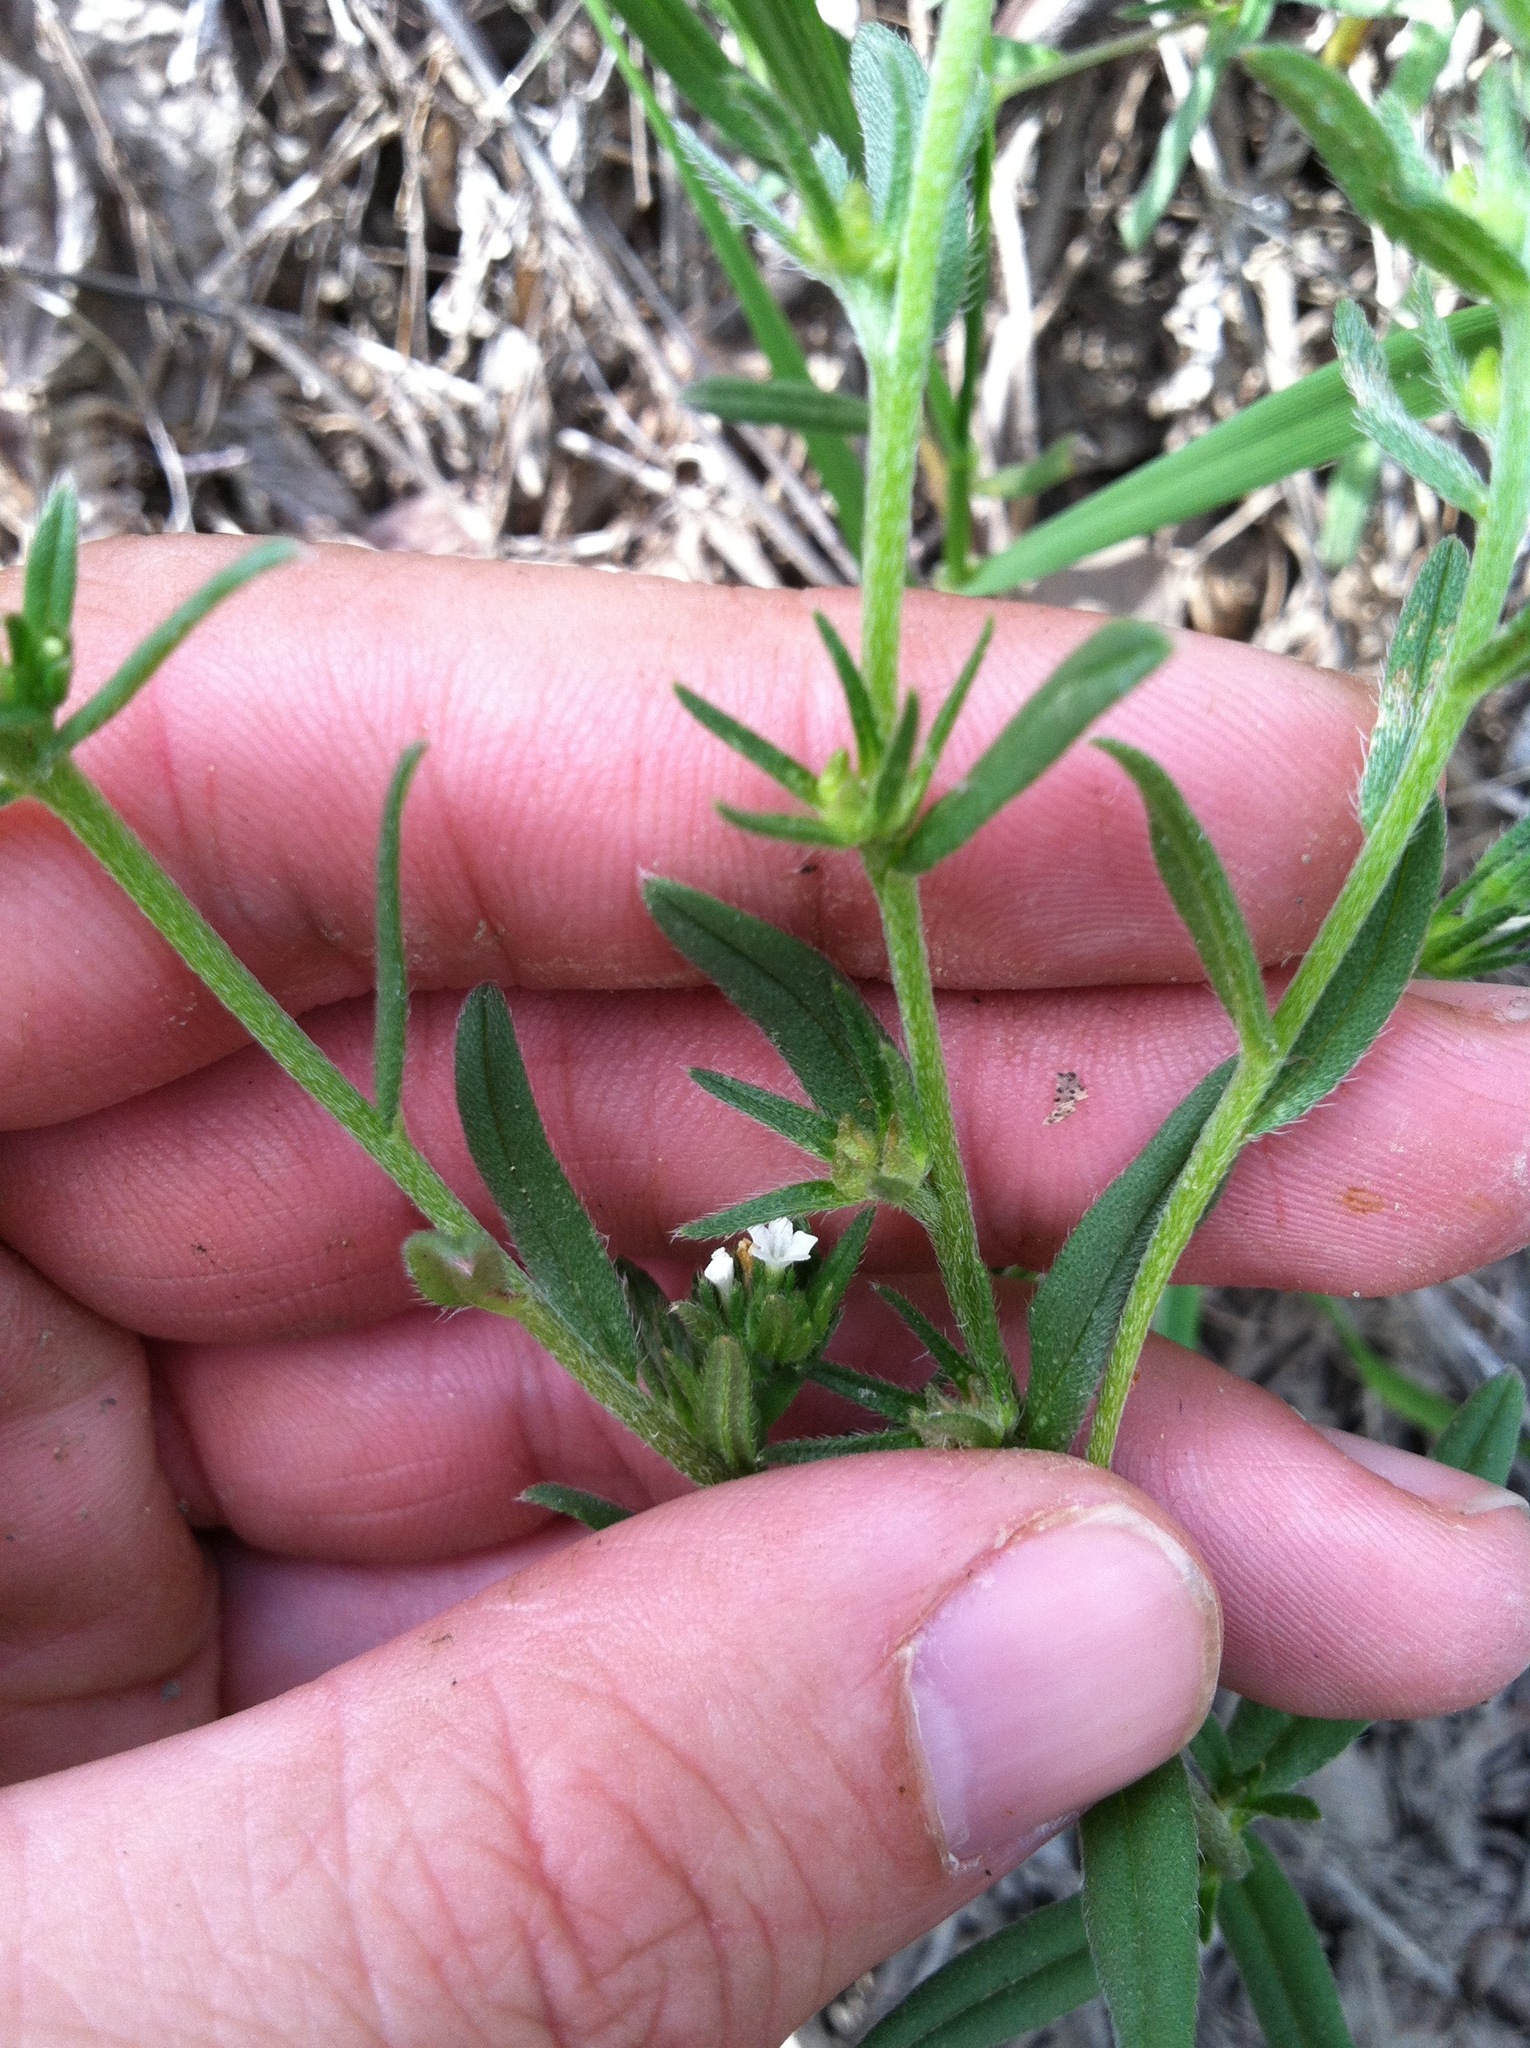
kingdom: Plantae
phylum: Tracheophyta
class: Magnoliopsida
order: Boraginales
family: Boraginaceae
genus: Buglossoides
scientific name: Buglossoides arvensis
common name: Corn gromwell
